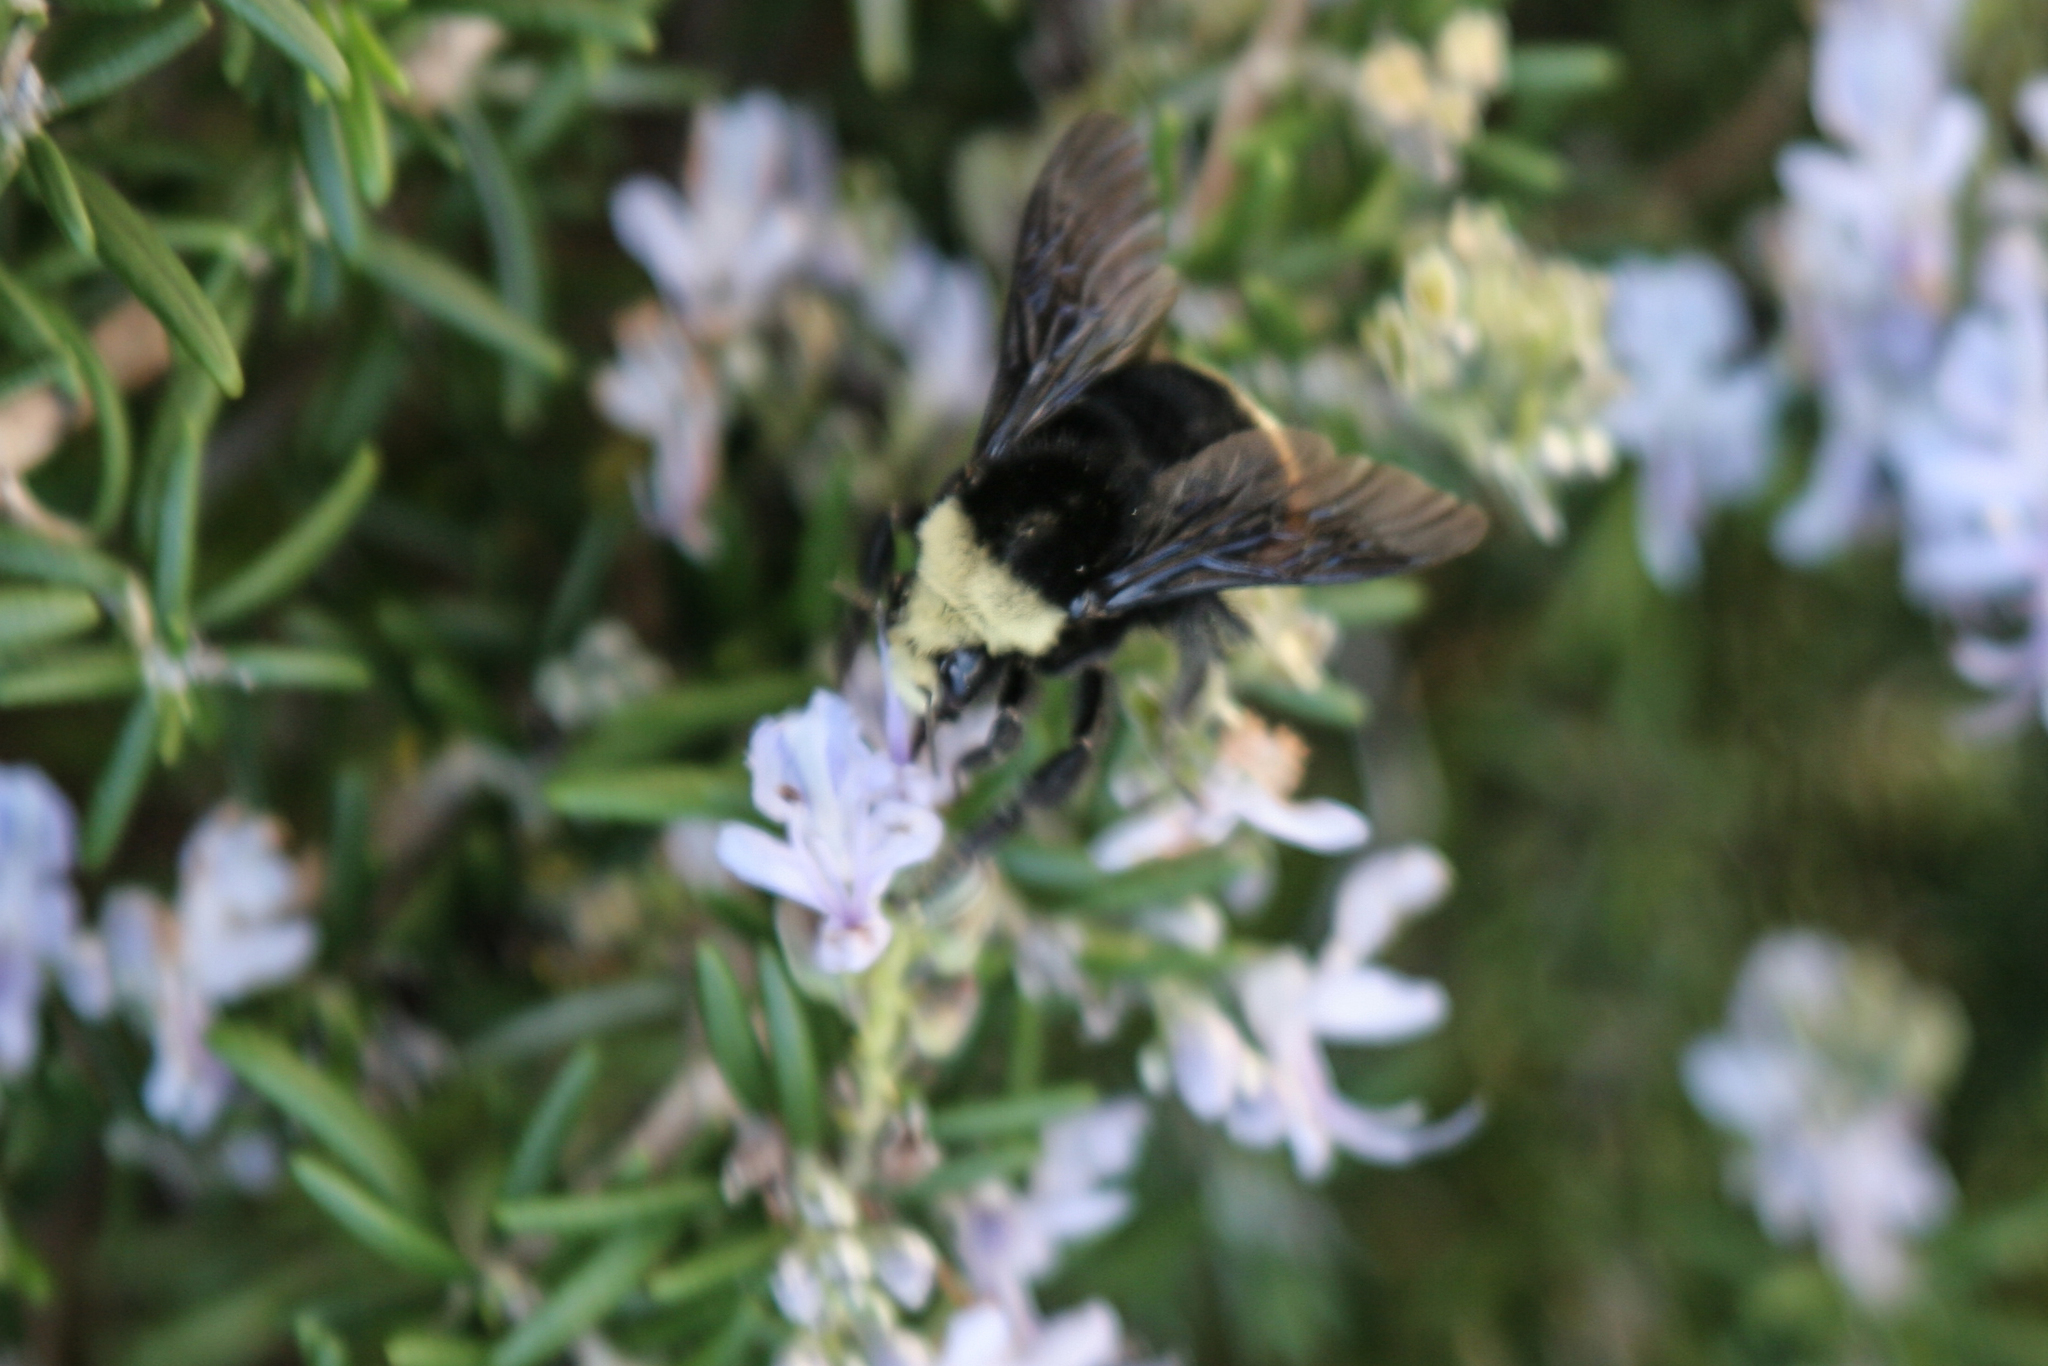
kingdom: Animalia
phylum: Arthropoda
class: Insecta
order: Hymenoptera
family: Apidae
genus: Bombus
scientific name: Bombus vosnesenskii
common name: Vosnesensky bumble bee
